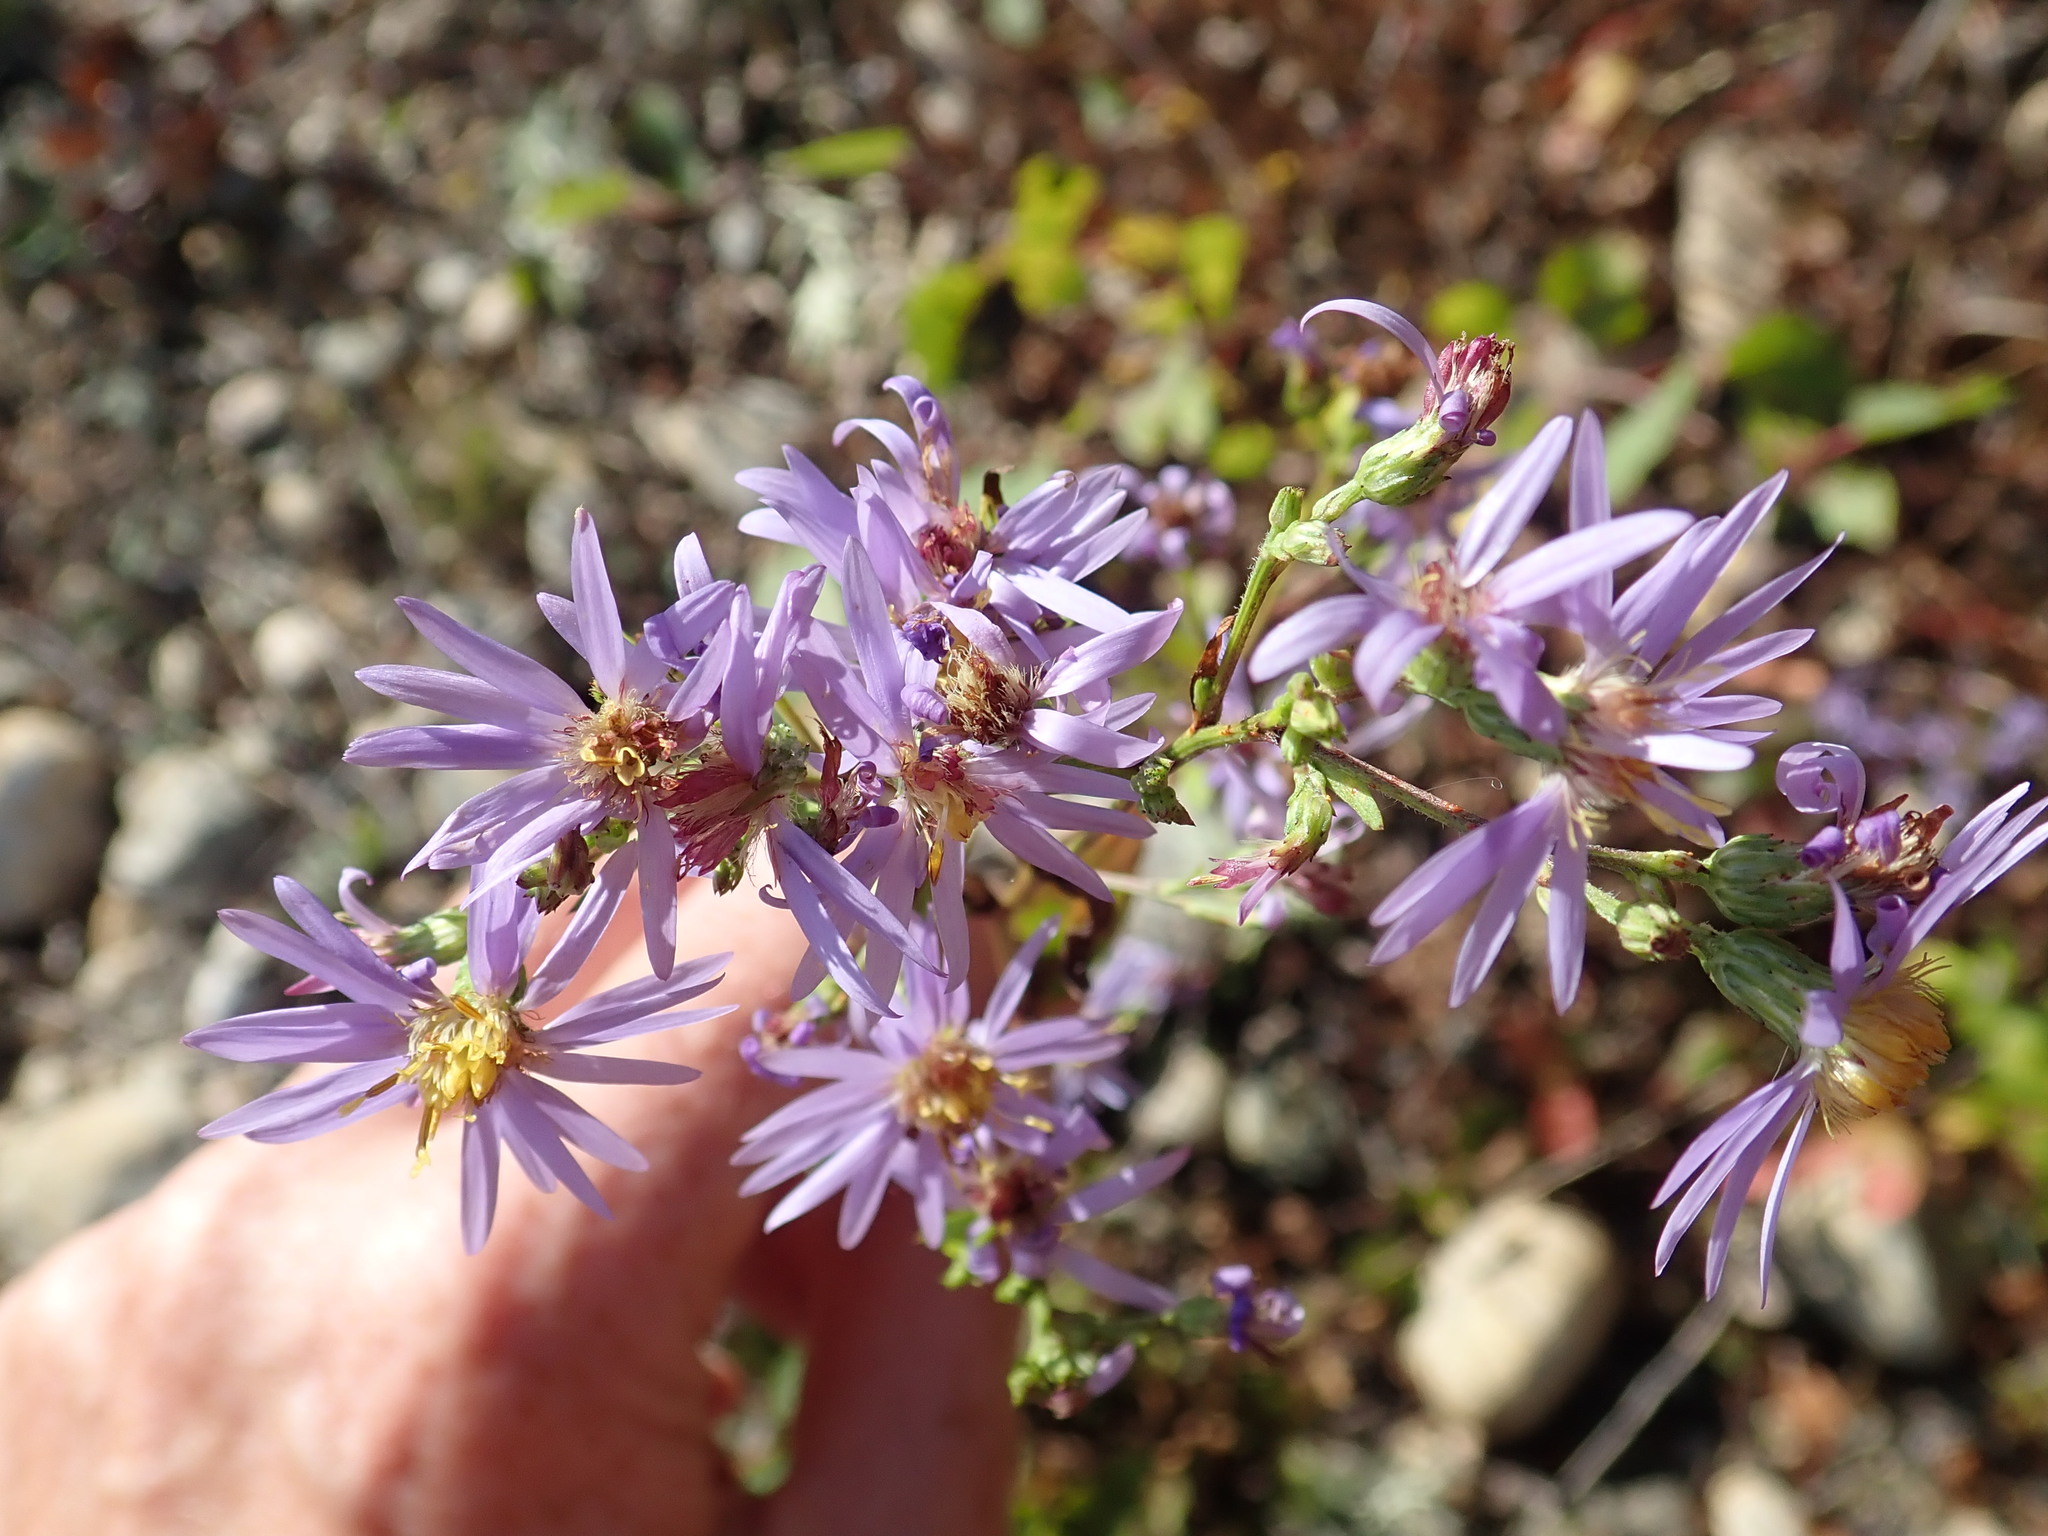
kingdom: Plantae
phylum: Tracheophyta
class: Magnoliopsida
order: Asterales
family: Asteraceae
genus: Symphyotrichum
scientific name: Symphyotrichum ciliolatum
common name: Fringed blue aster
